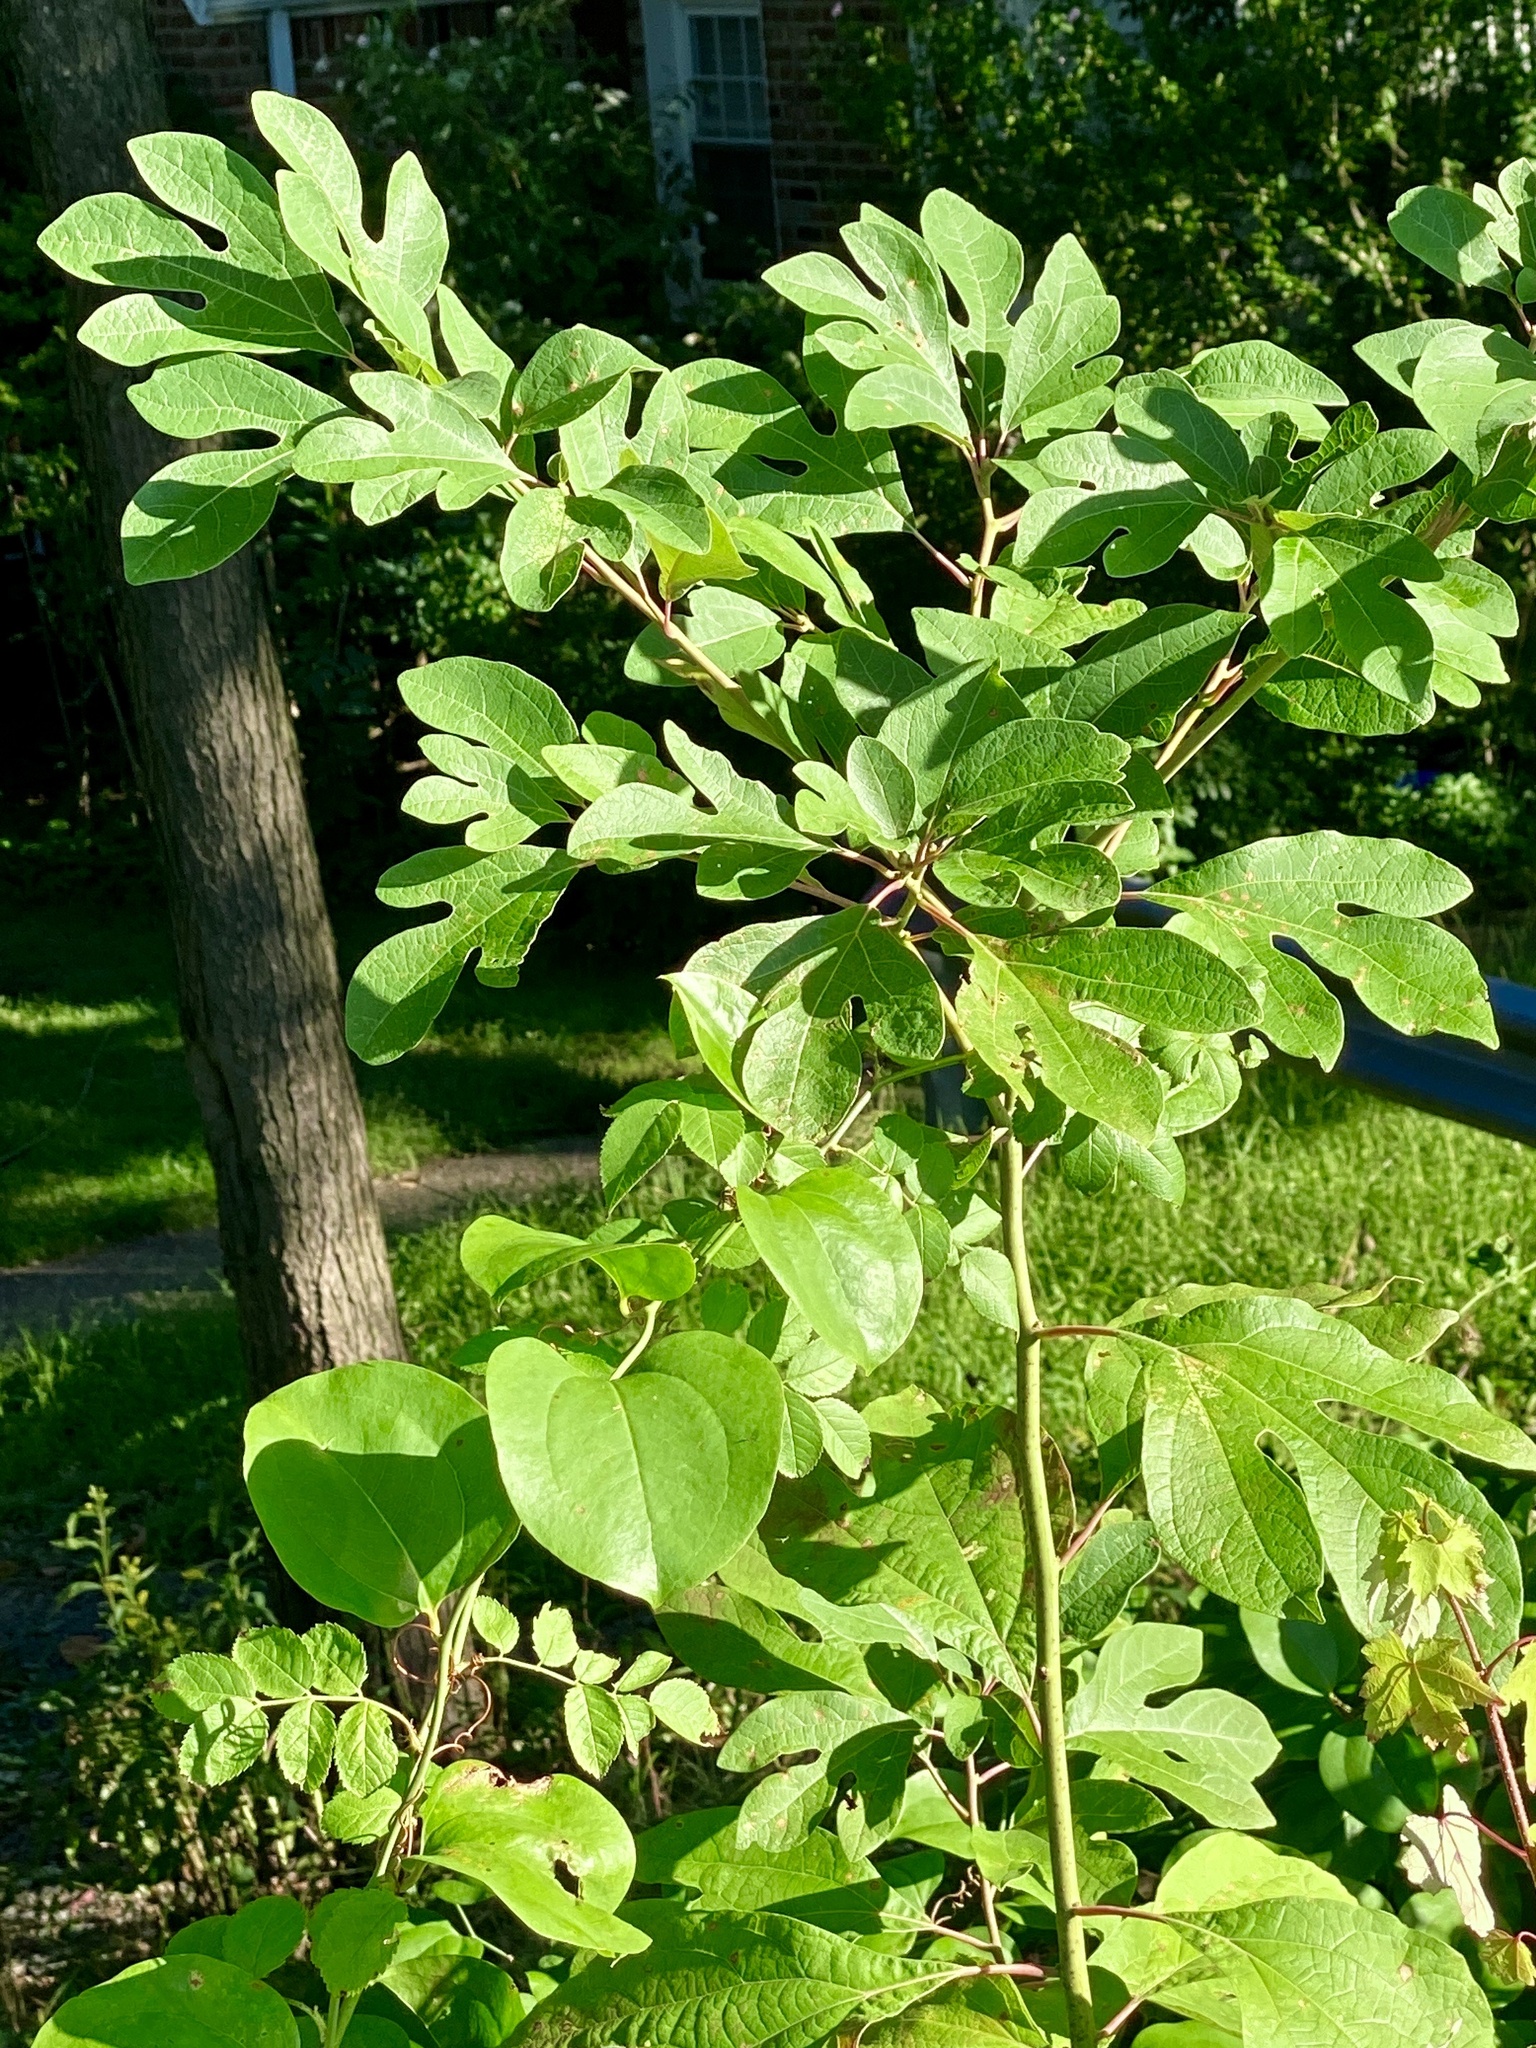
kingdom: Plantae
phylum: Tracheophyta
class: Magnoliopsida
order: Laurales
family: Lauraceae
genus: Sassafras
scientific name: Sassafras albidum
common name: Sassafras
